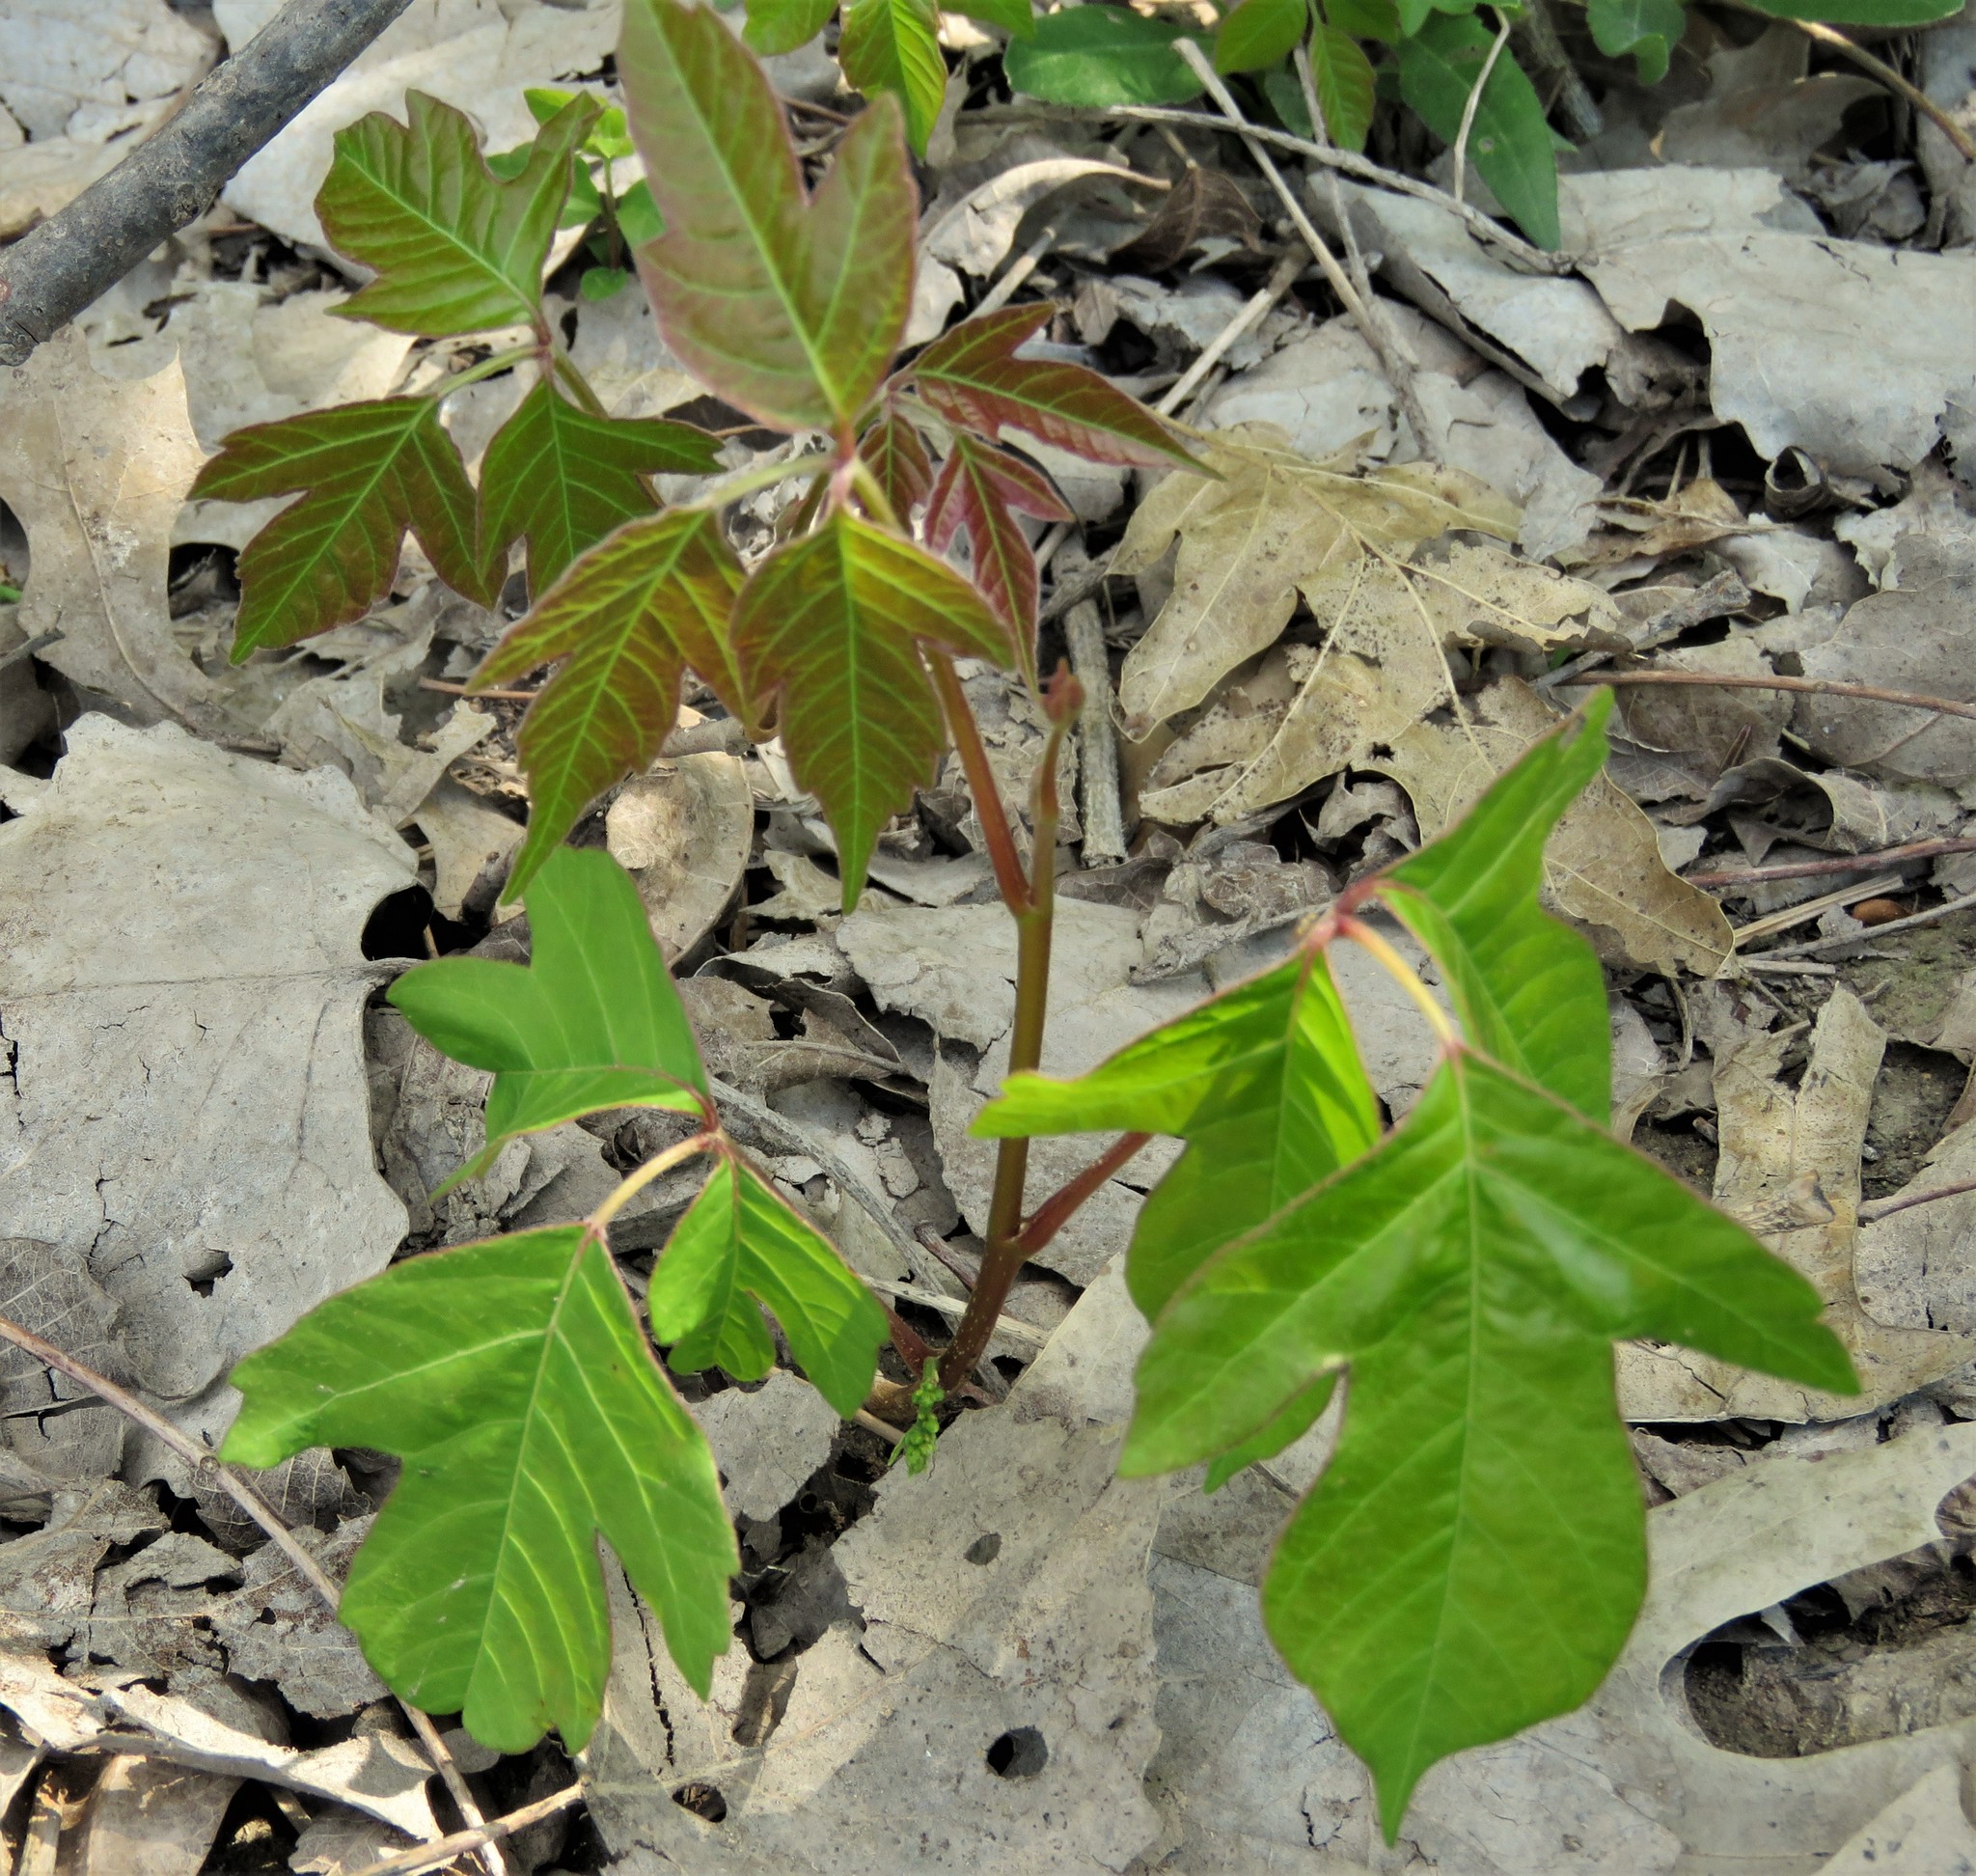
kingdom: Plantae
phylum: Tracheophyta
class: Magnoliopsida
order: Sapindales
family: Anacardiaceae
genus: Toxicodendron
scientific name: Toxicodendron radicans
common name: Poison ivy
